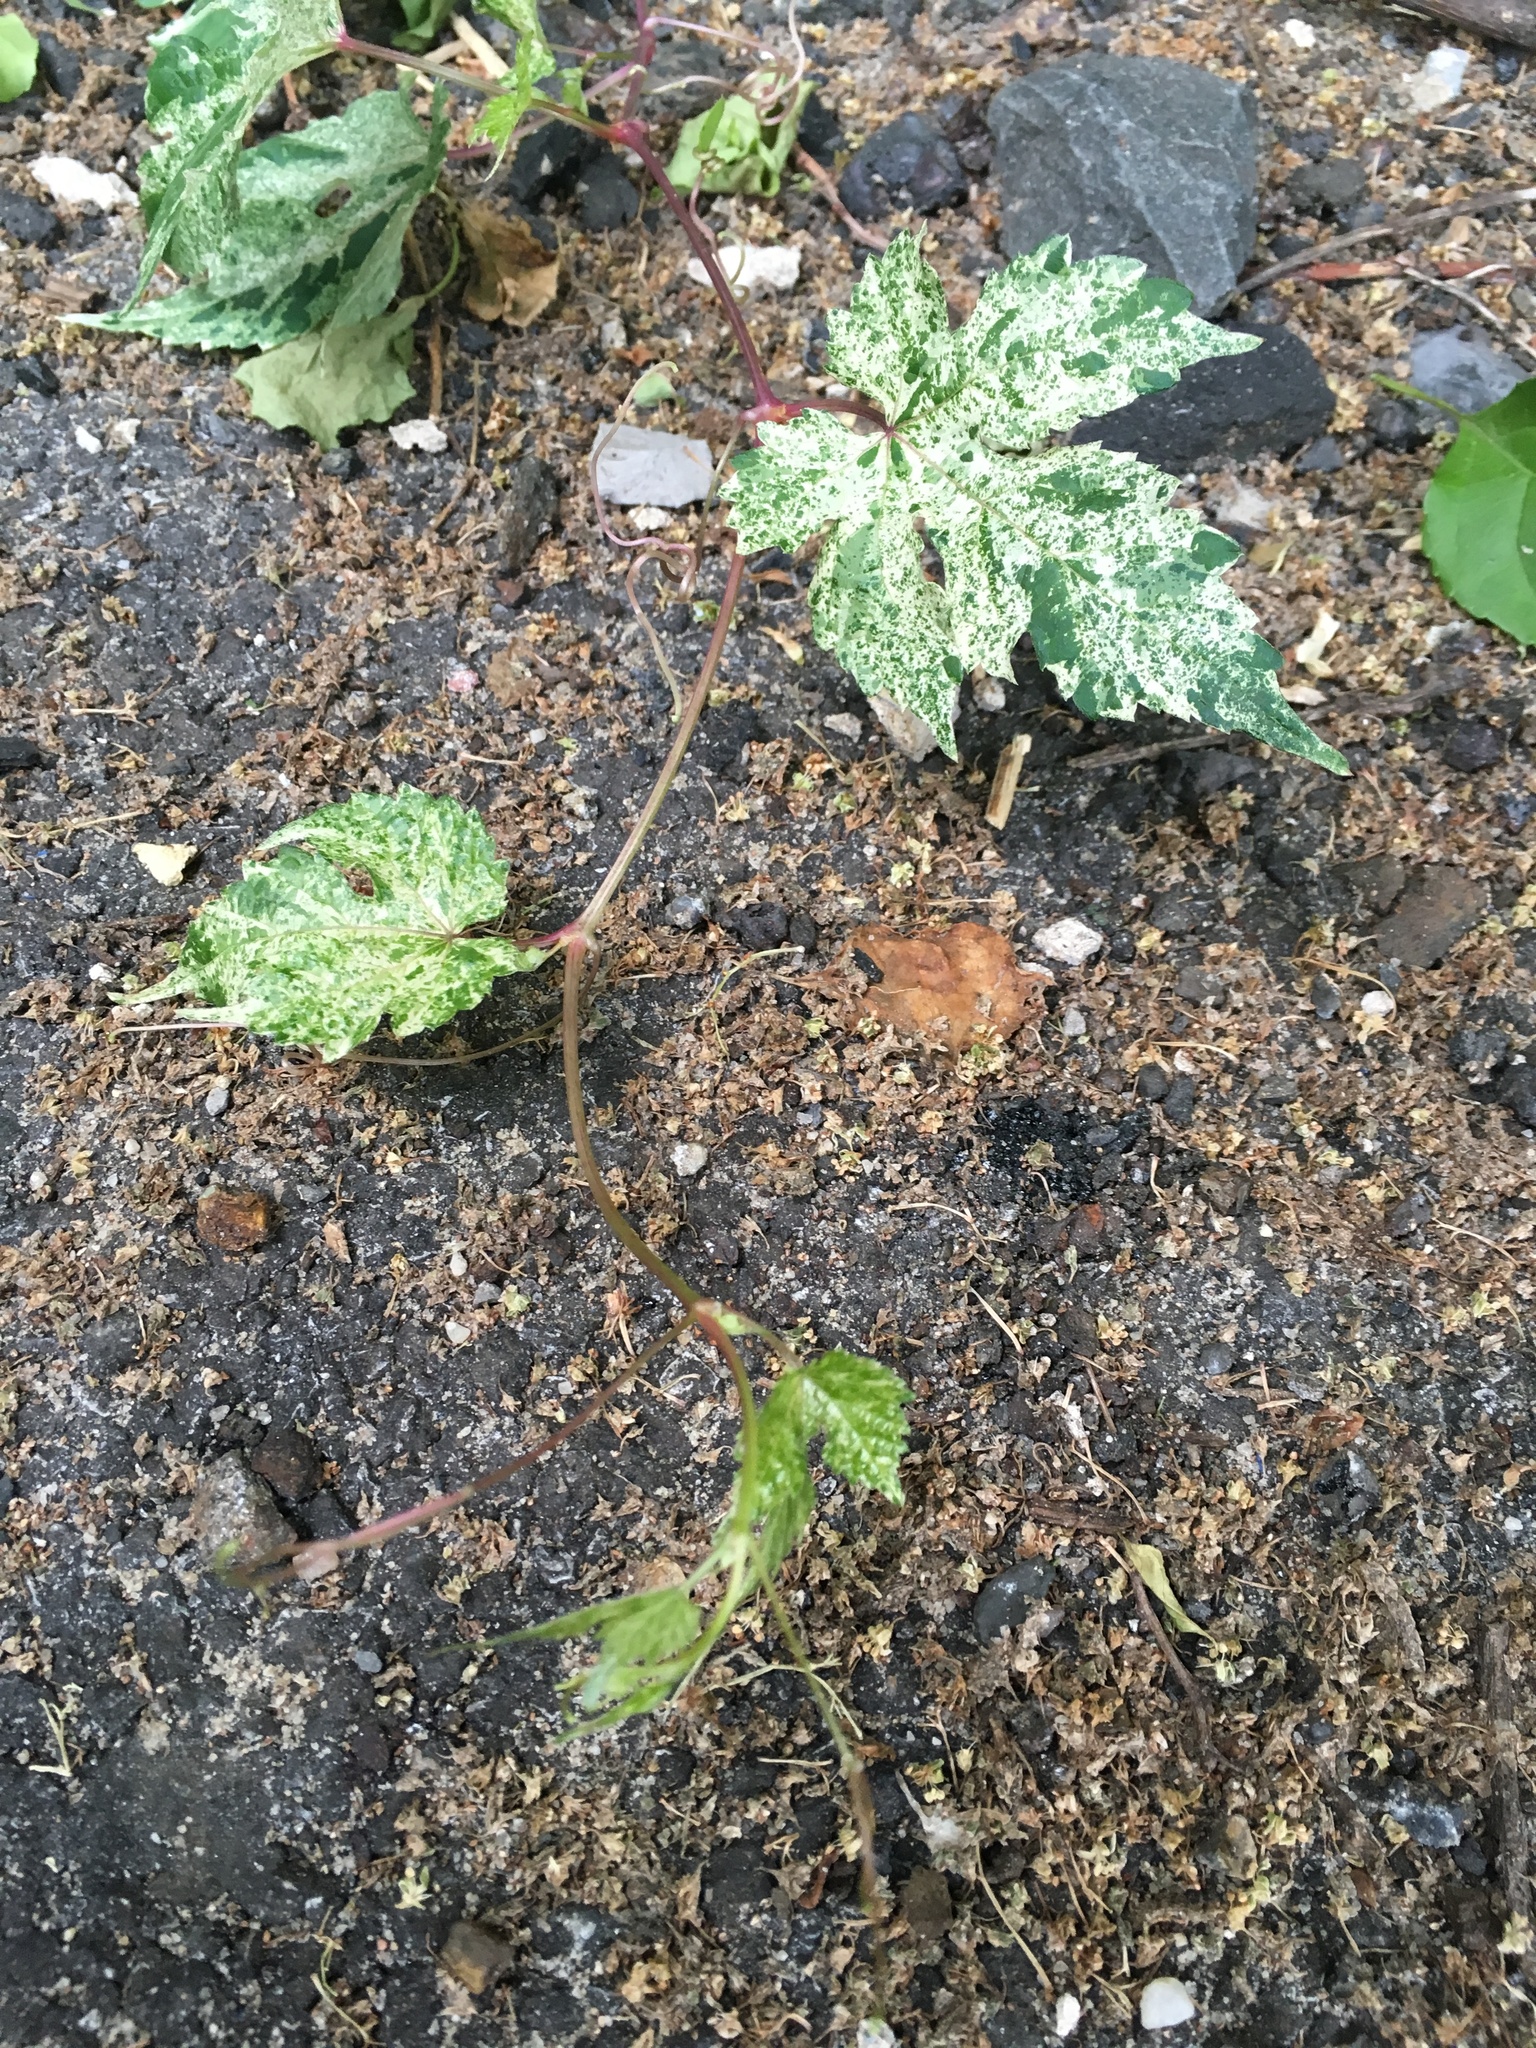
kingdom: Plantae
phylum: Tracheophyta
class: Magnoliopsida
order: Vitales
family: Vitaceae
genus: Ampelopsis
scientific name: Ampelopsis glandulosa
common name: Amur peppervine
